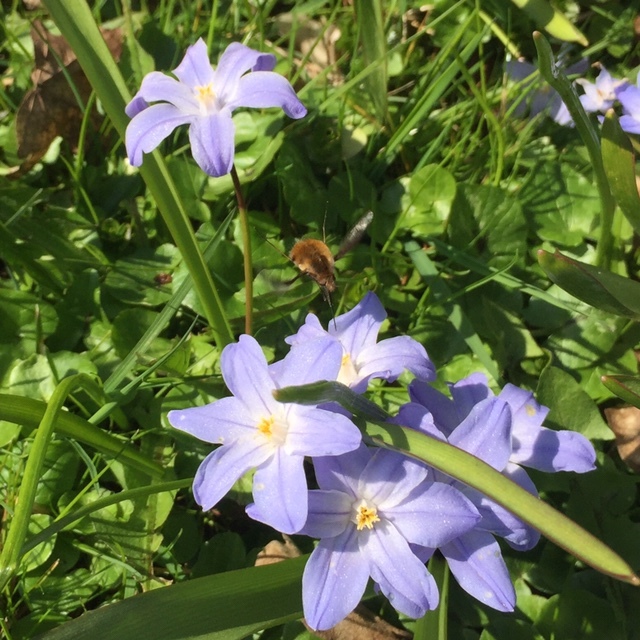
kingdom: Animalia
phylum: Arthropoda
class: Insecta
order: Diptera
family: Bombyliidae
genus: Bombylius
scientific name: Bombylius major
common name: Bee fly
